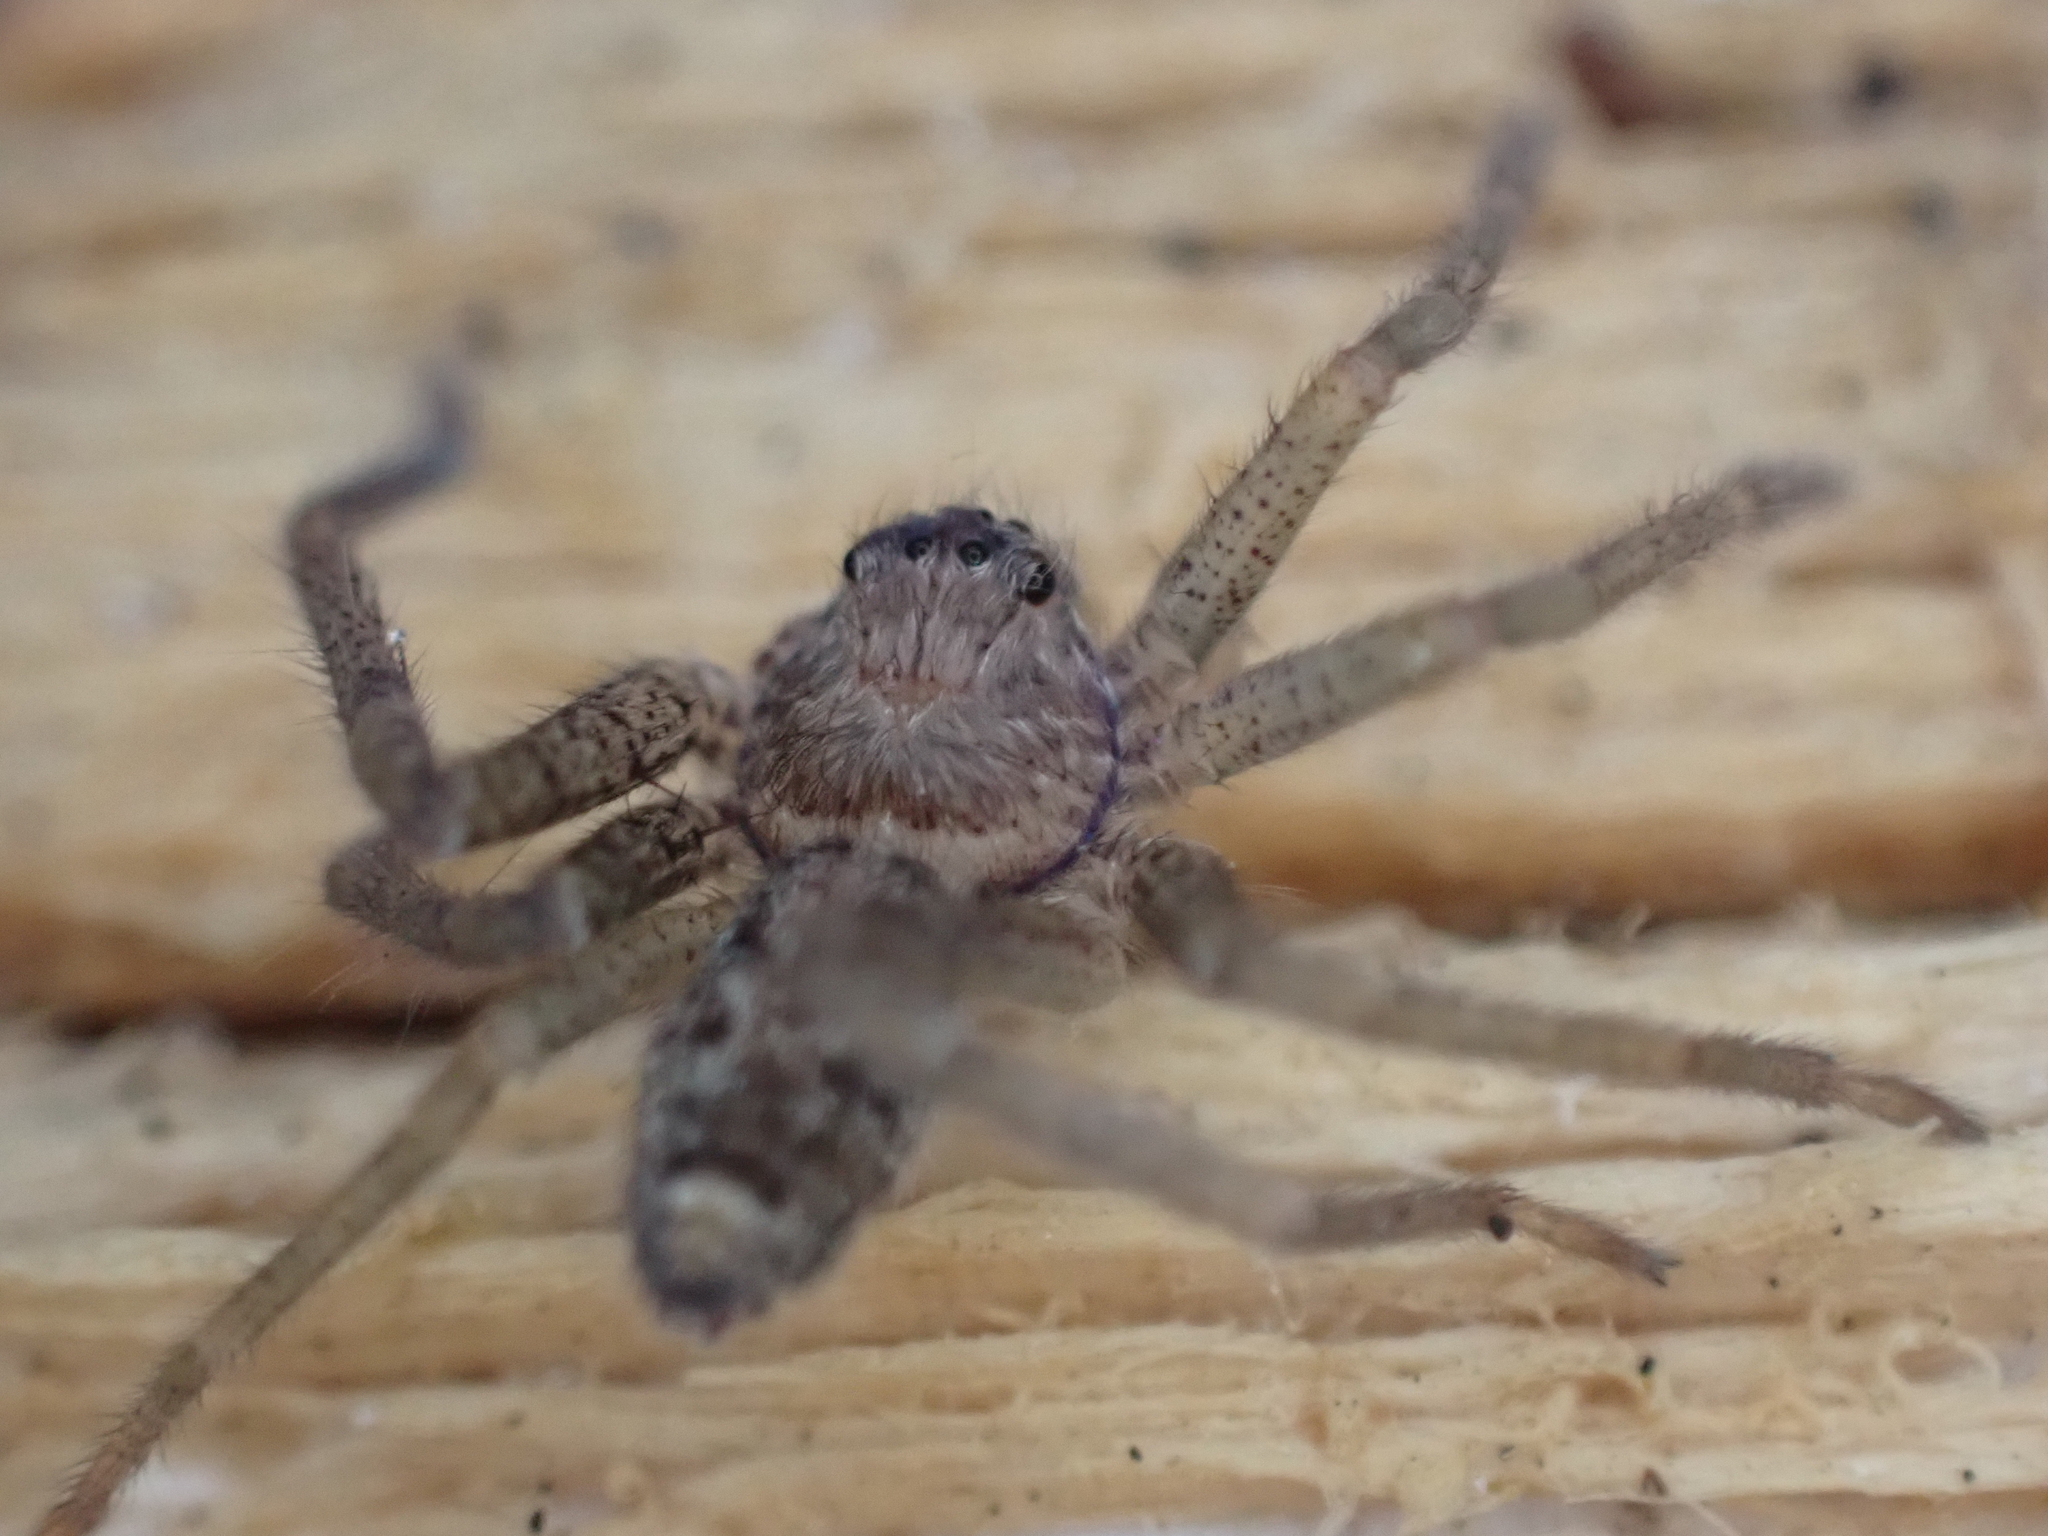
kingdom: Animalia
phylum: Arthropoda
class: Arachnida
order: Araneae
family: Sparassidae
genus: Heteropoda
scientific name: Heteropoda venatoria
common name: Huntsman spider
